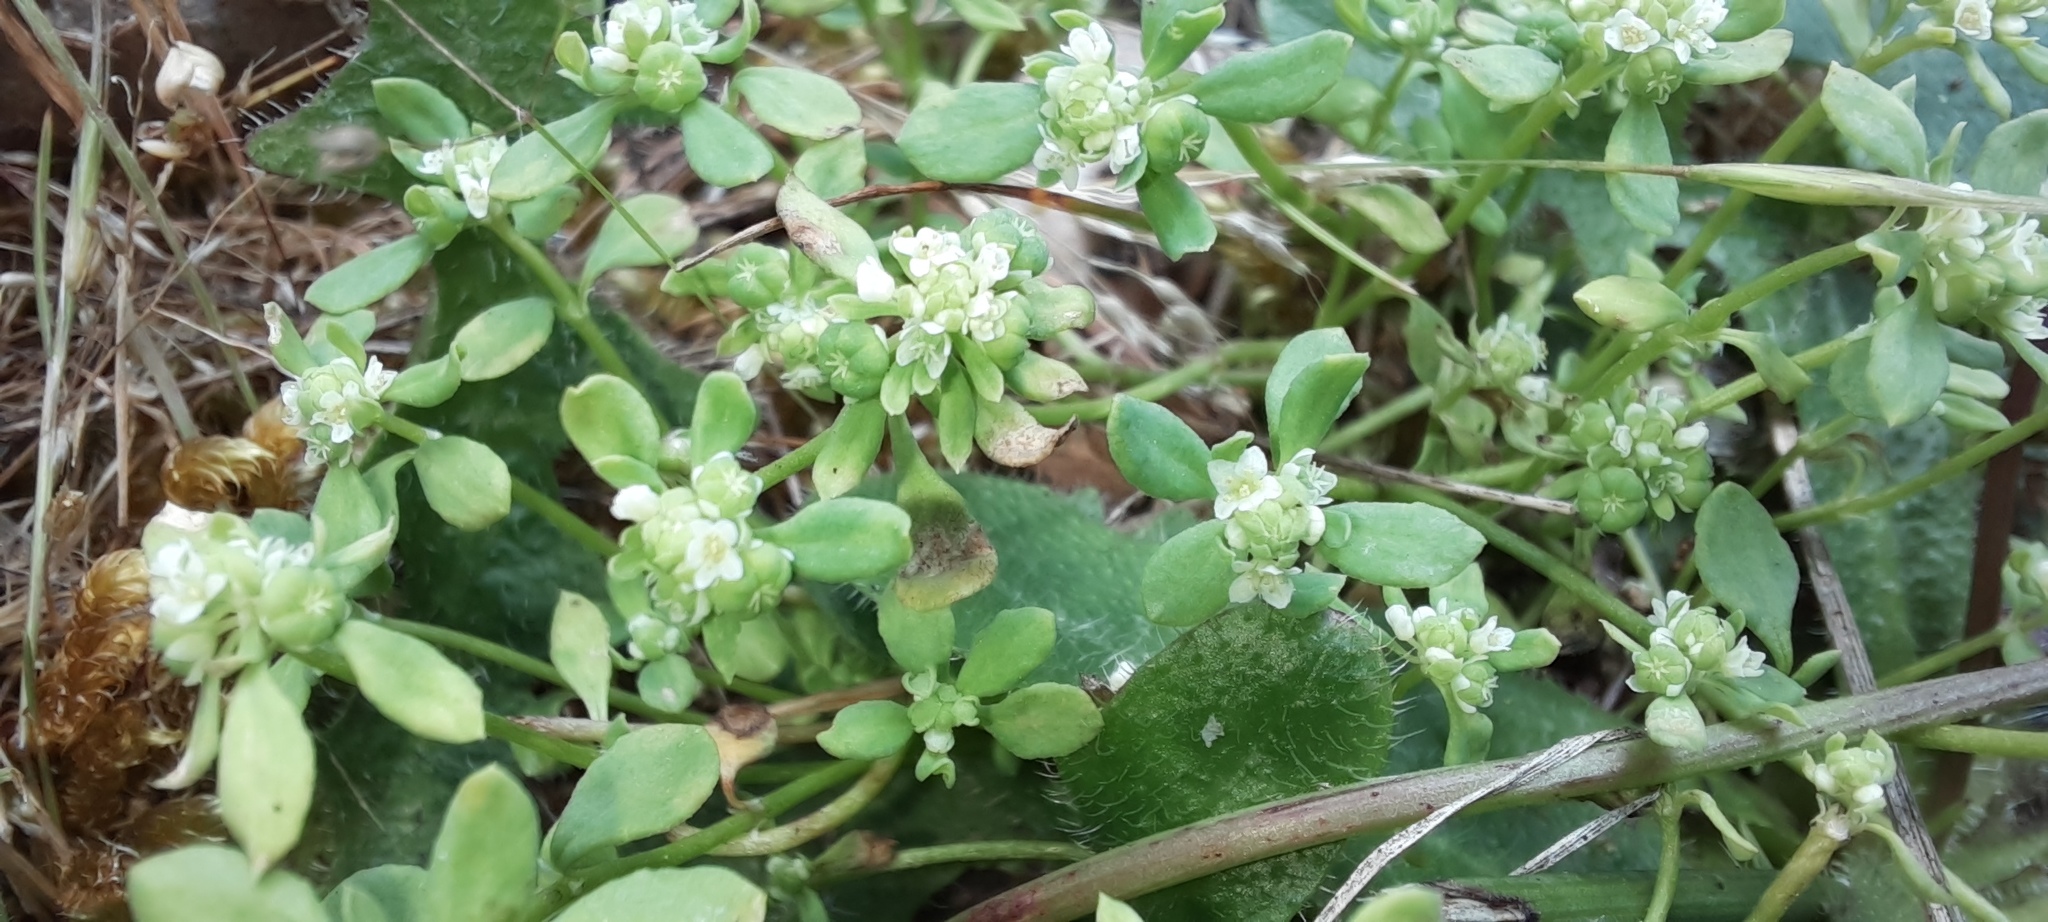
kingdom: Plantae
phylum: Tracheophyta
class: Magnoliopsida
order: Malpighiales
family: Phyllanthaceae
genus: Poranthera
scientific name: Poranthera microphylla
